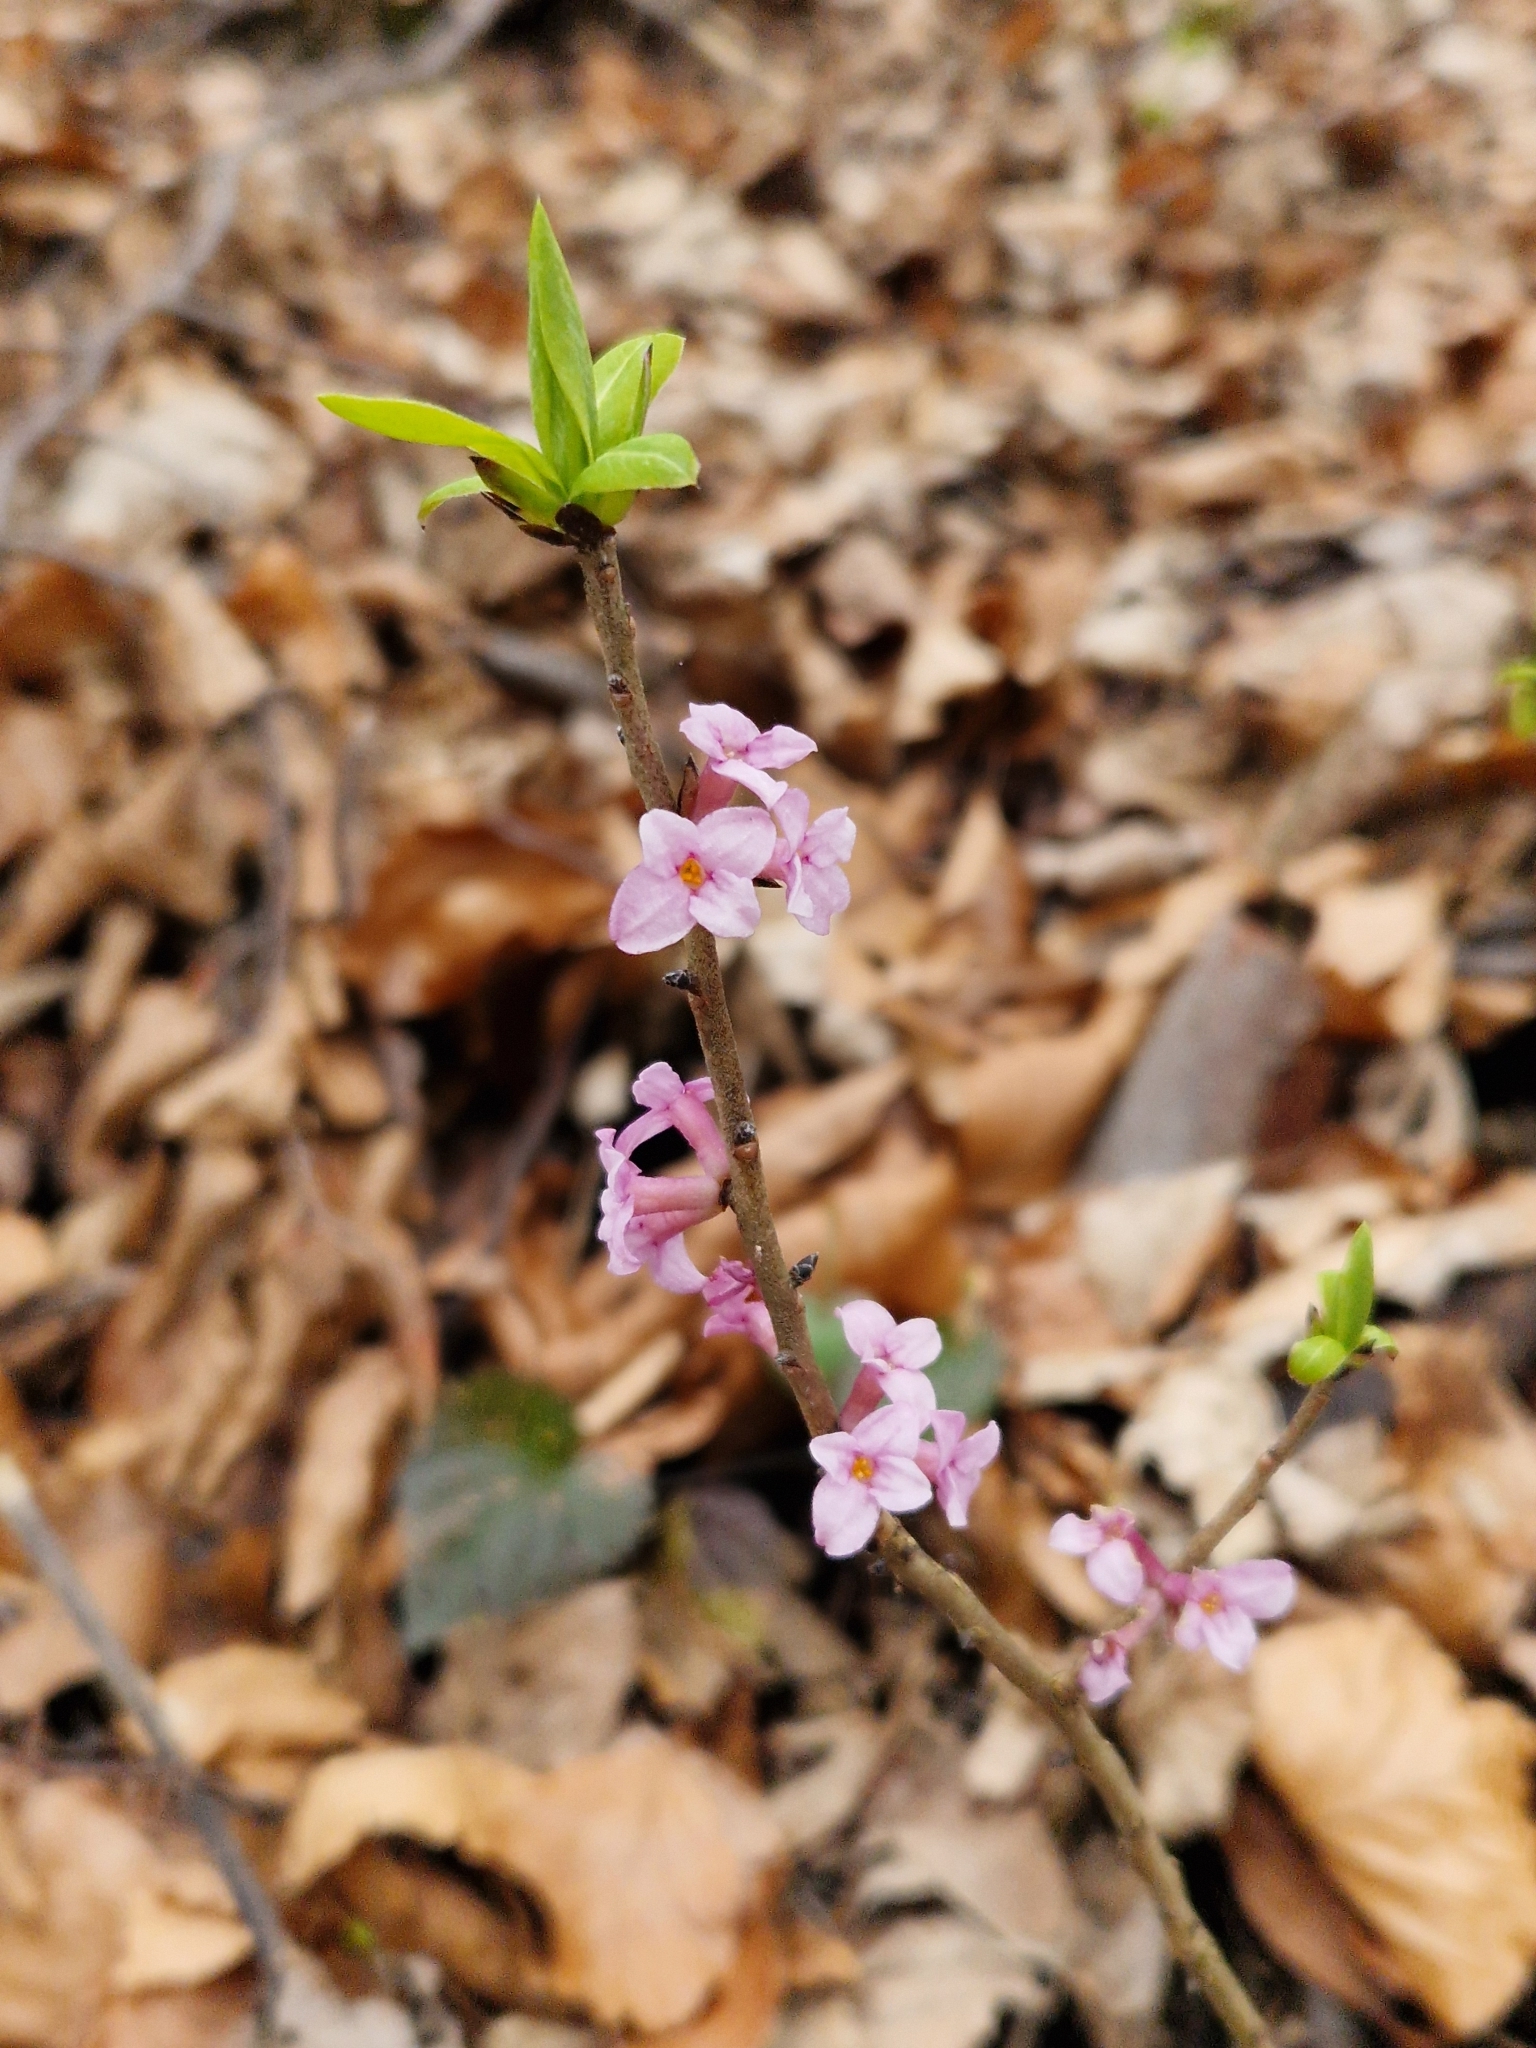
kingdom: Plantae
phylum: Tracheophyta
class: Magnoliopsida
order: Malvales
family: Thymelaeaceae
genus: Daphne
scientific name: Daphne mezereum
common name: Mezereon
